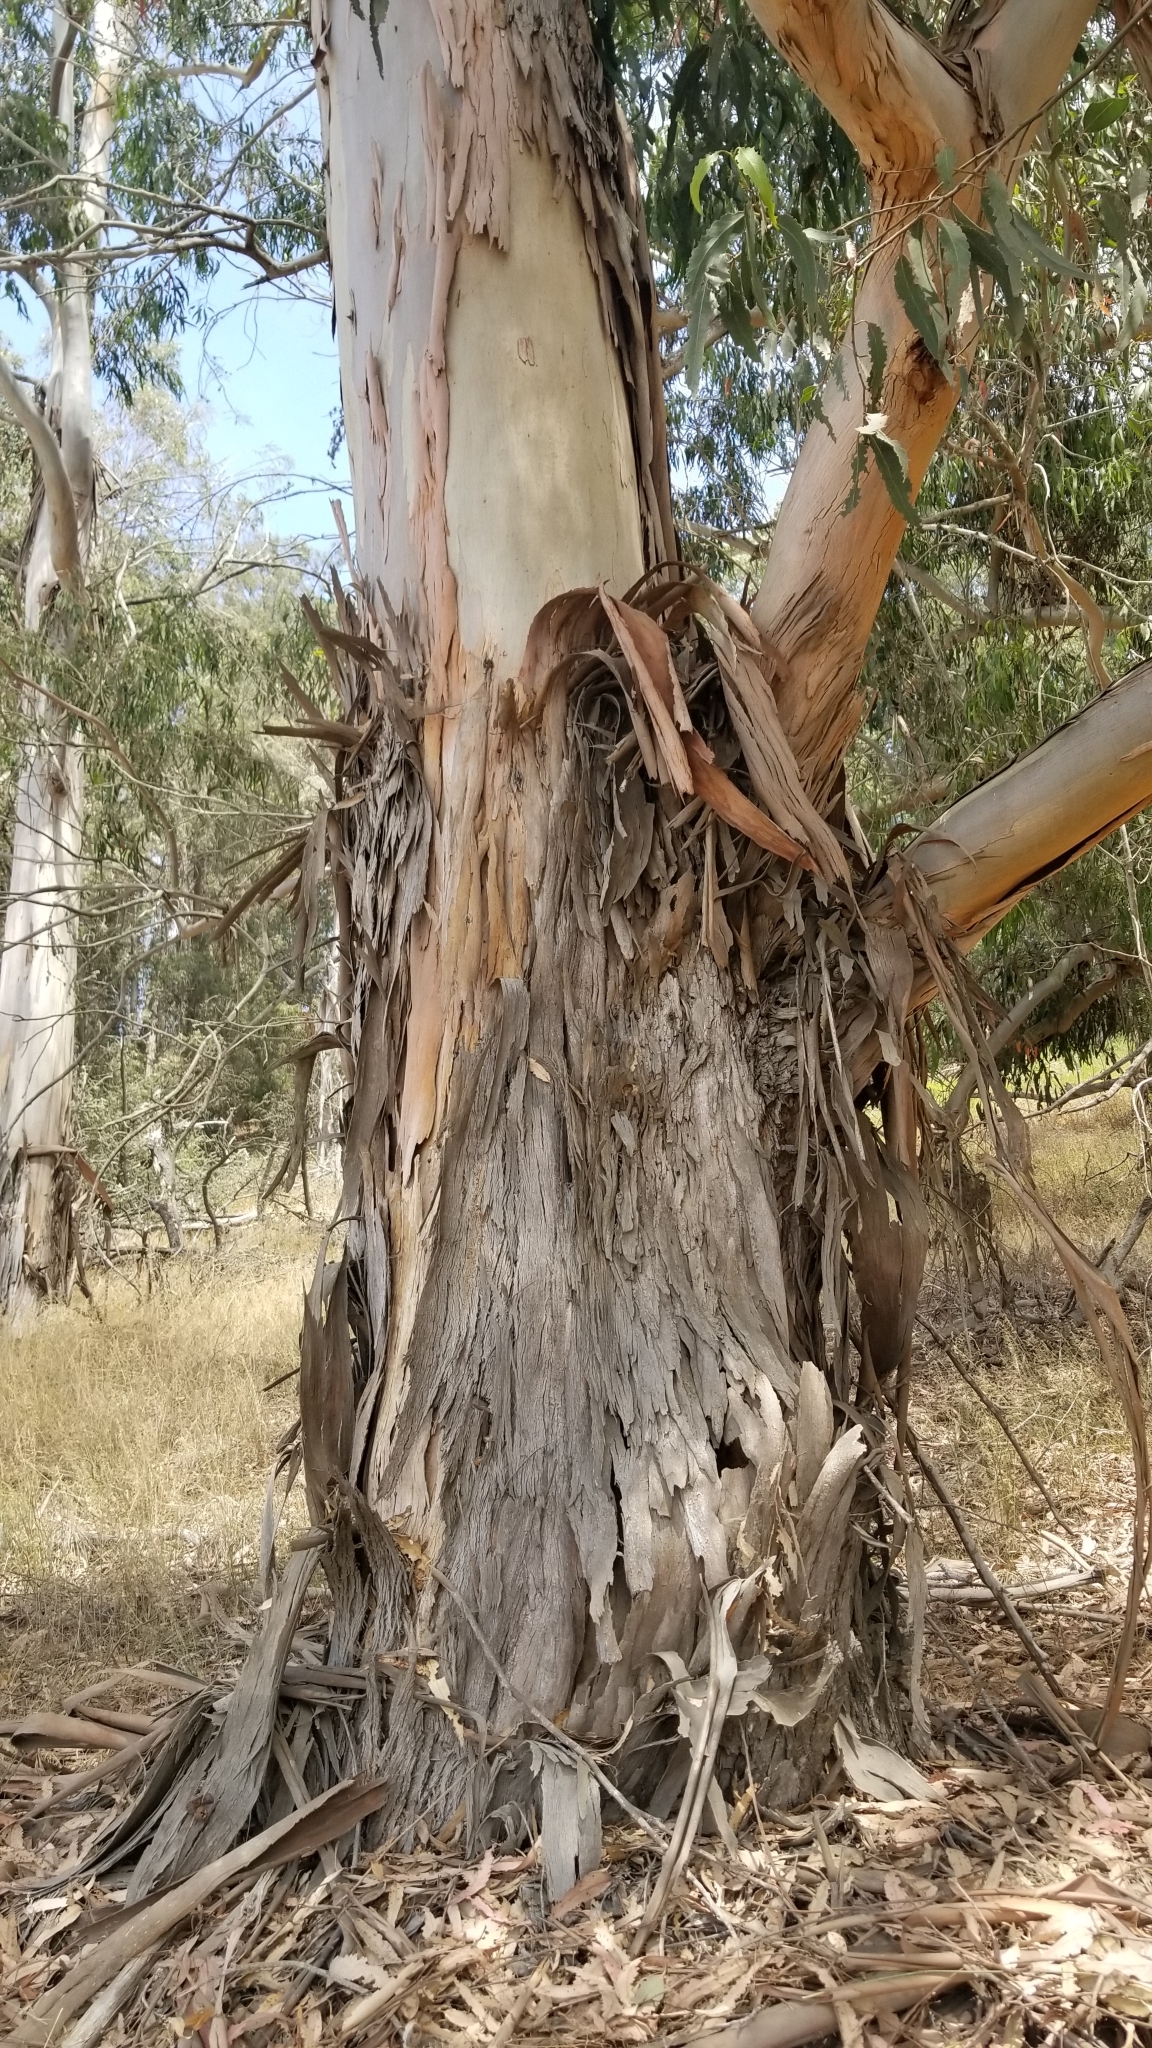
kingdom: Plantae
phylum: Tracheophyta
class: Magnoliopsida
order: Myrtales
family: Myrtaceae
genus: Eucalyptus
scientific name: Eucalyptus globulus
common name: Southern blue-gum
